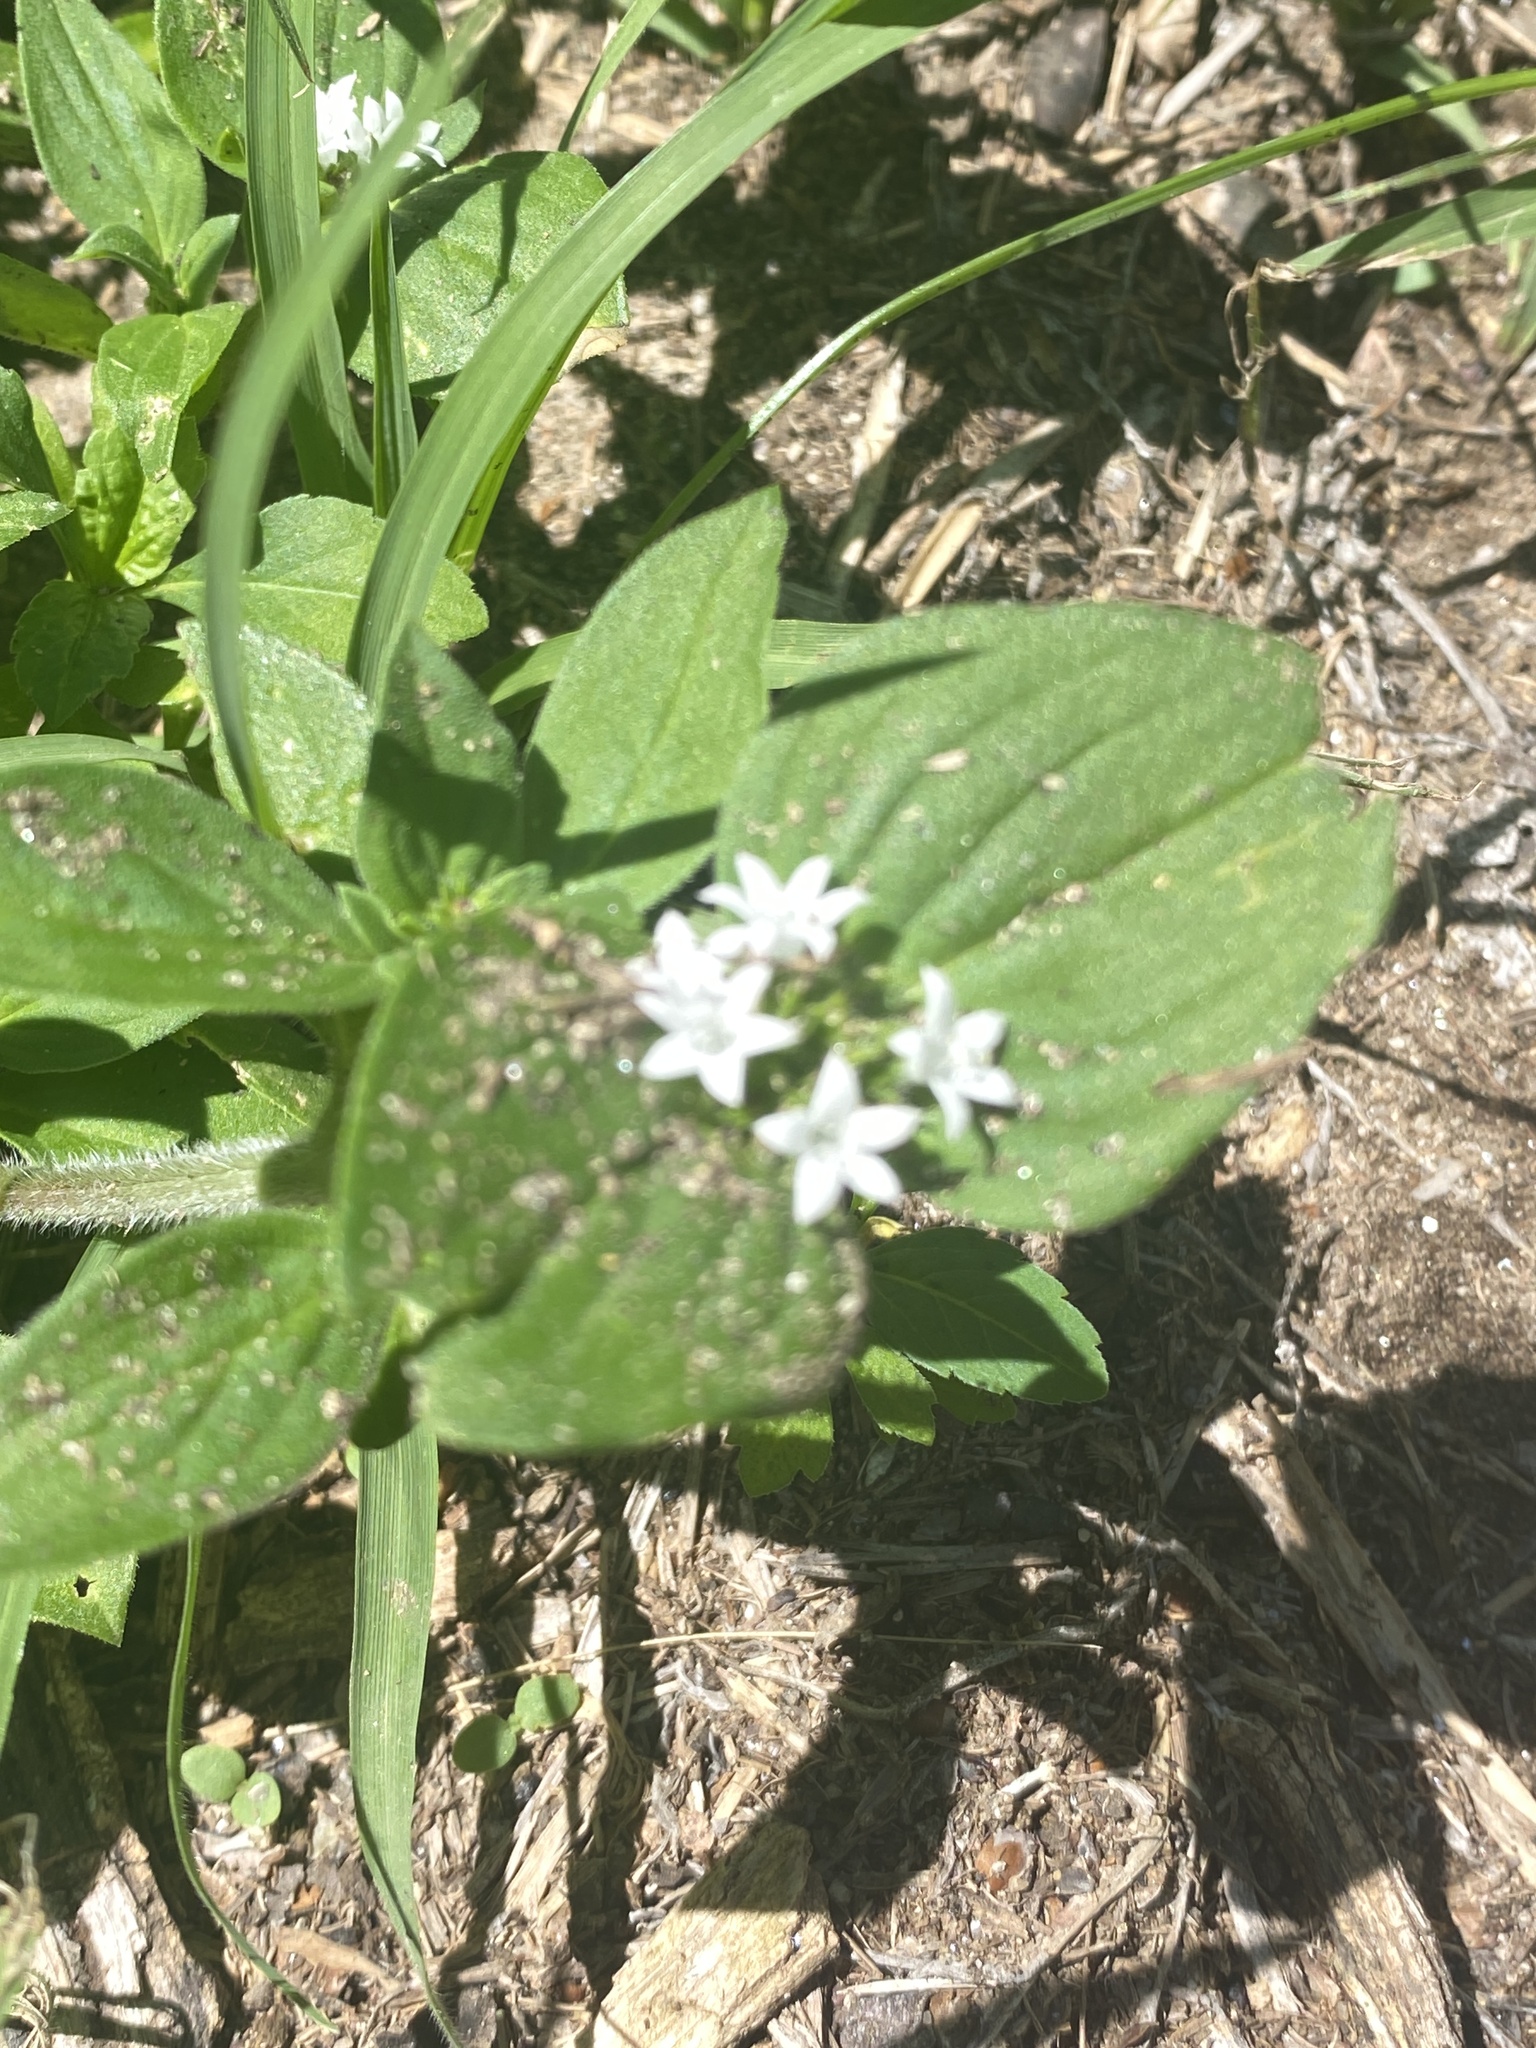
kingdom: Plantae
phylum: Tracheophyta
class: Magnoliopsida
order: Gentianales
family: Rubiaceae
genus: Richardia
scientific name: Richardia brasiliensis
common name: Tropical mexican clover
